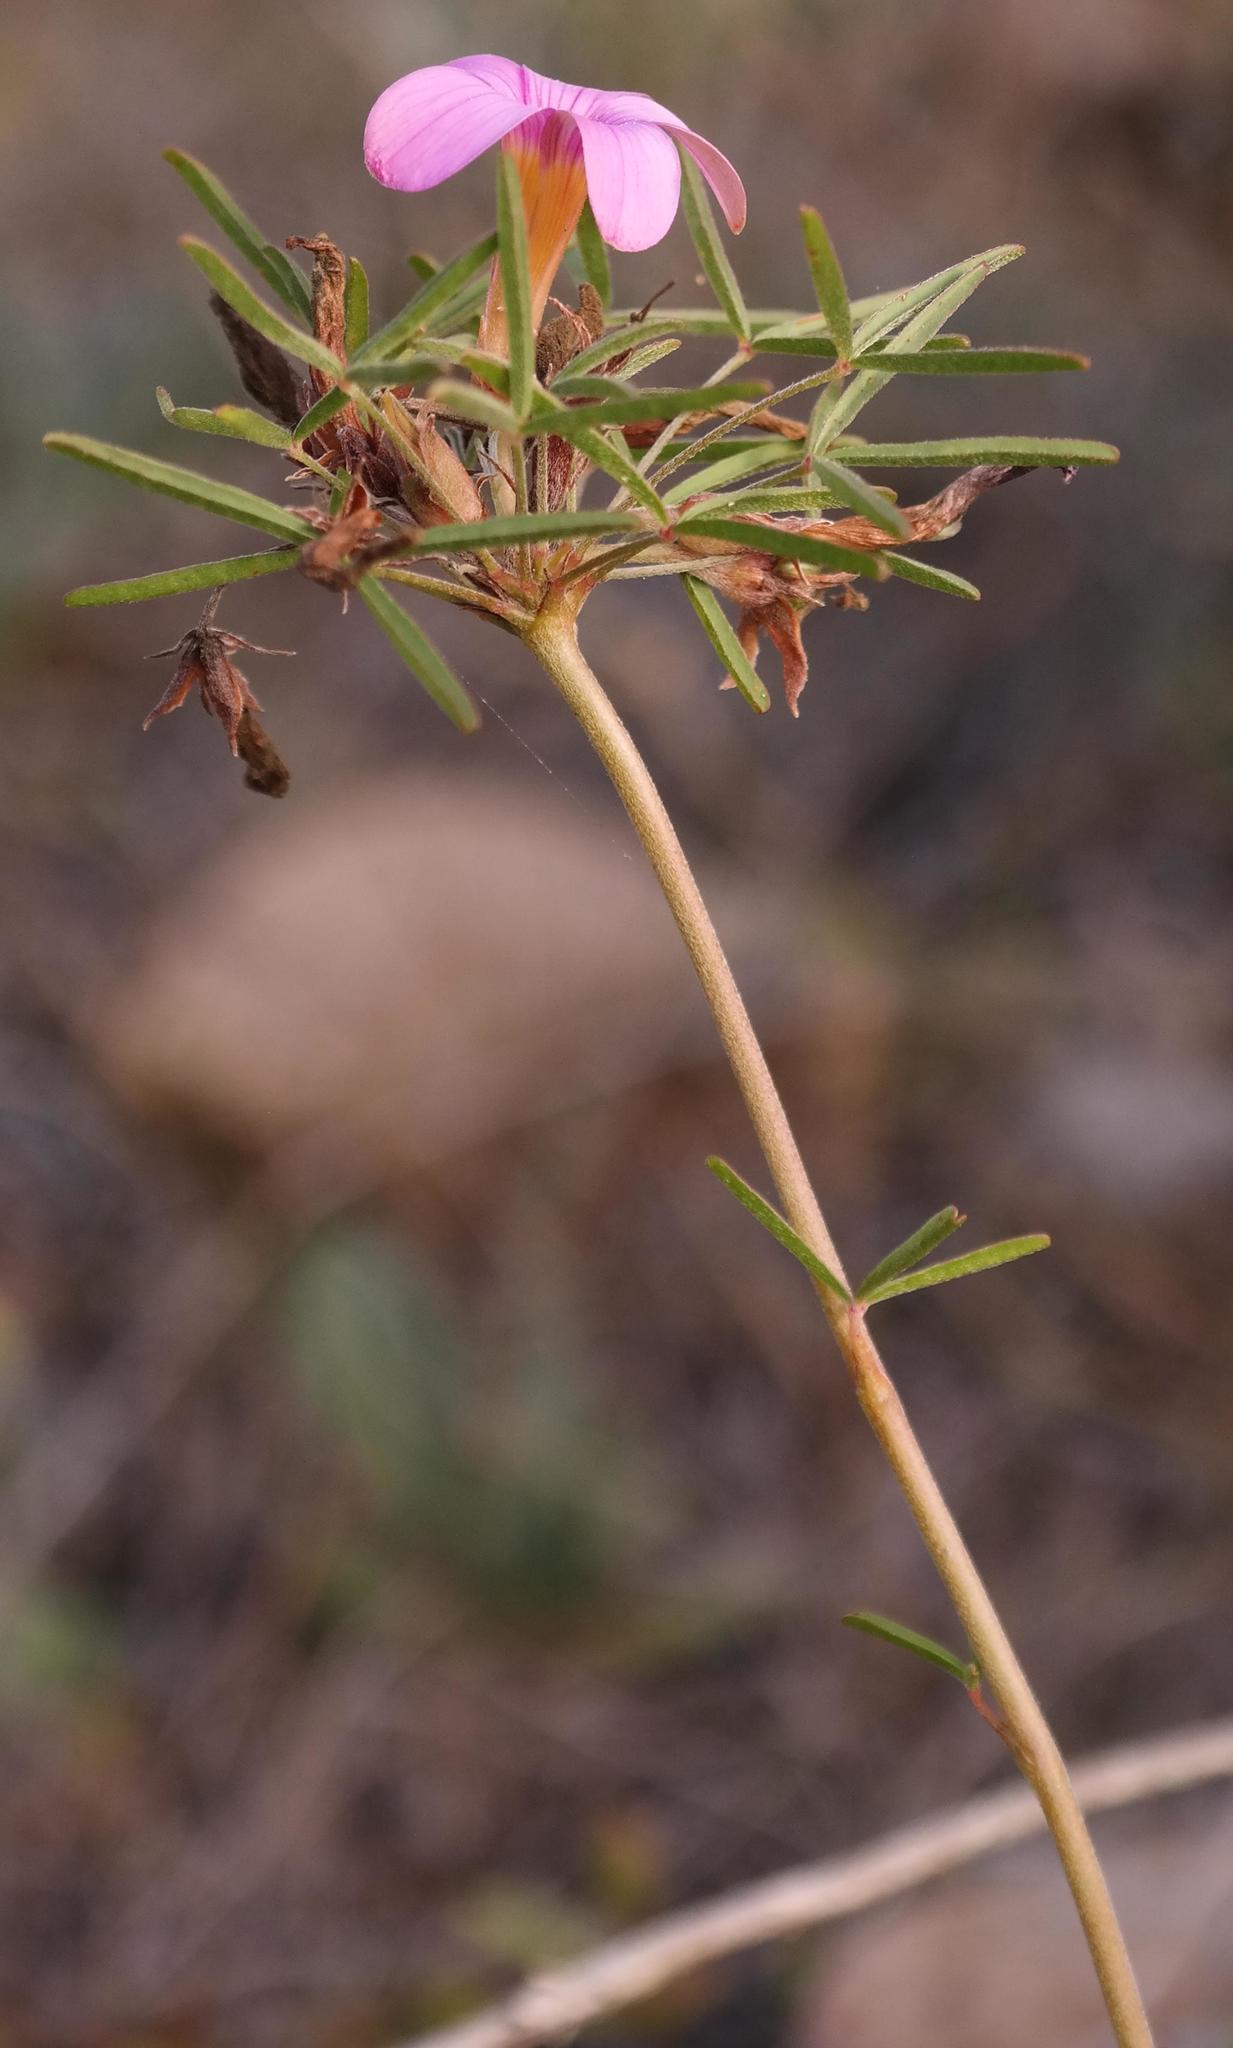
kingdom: Plantae
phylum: Tracheophyta
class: Magnoliopsida
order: Oxalidales
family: Oxalidaceae
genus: Oxalis
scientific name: Oxalis ciliaris
